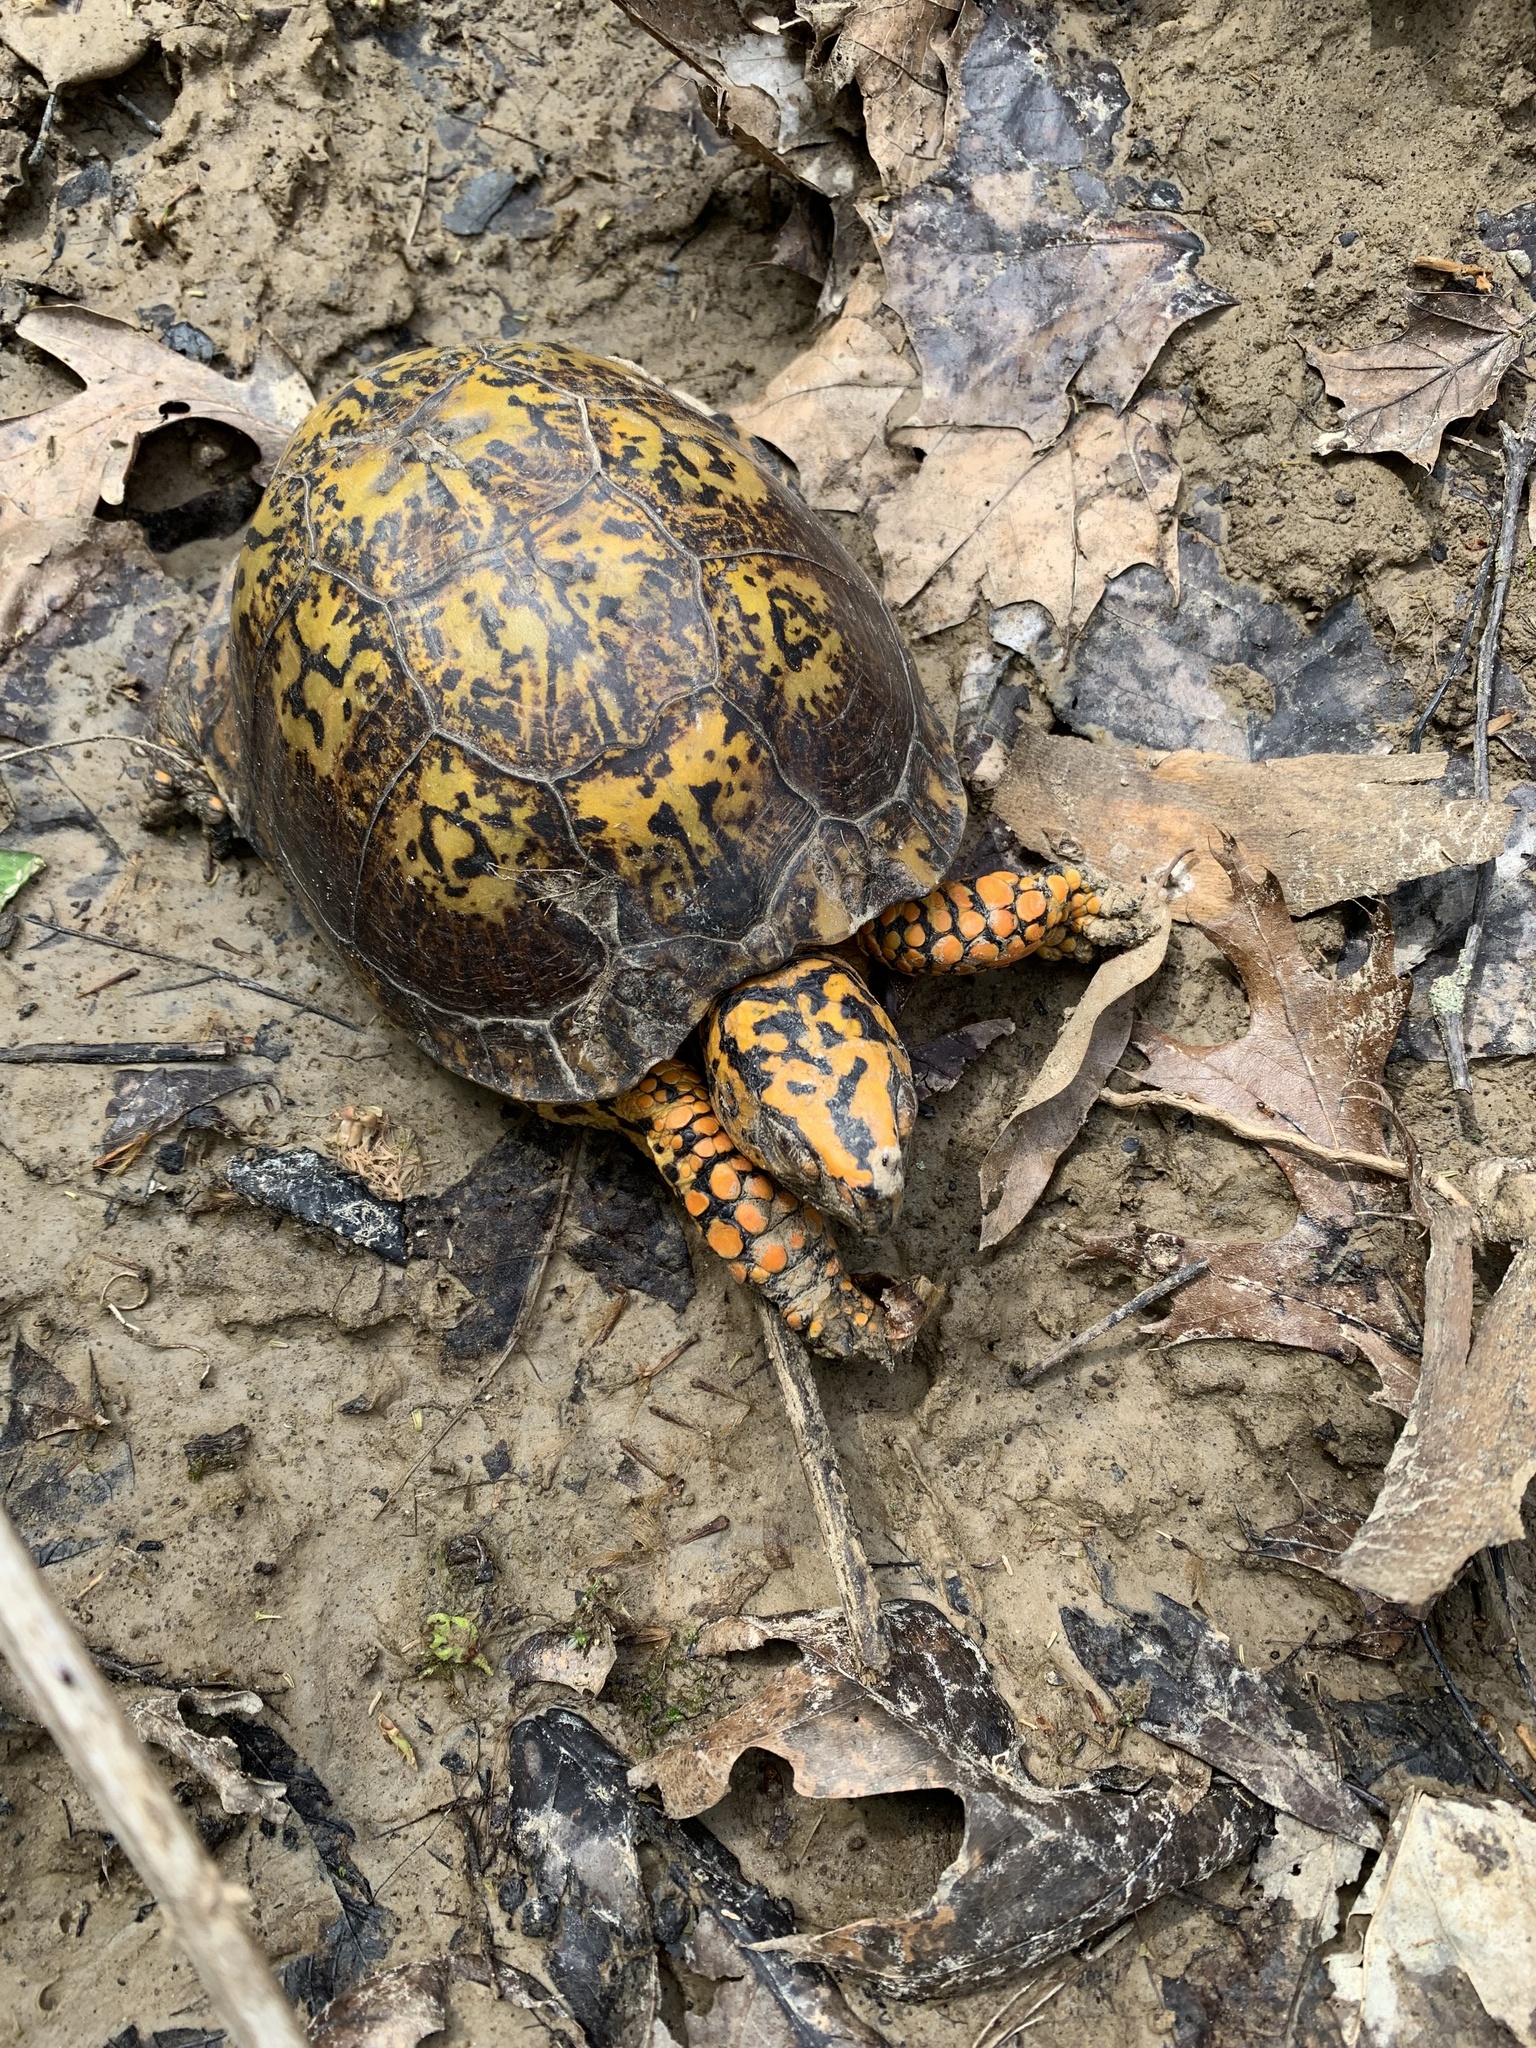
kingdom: Animalia
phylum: Chordata
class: Testudines
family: Emydidae
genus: Terrapene
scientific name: Terrapene carolina
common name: Common box turtle
